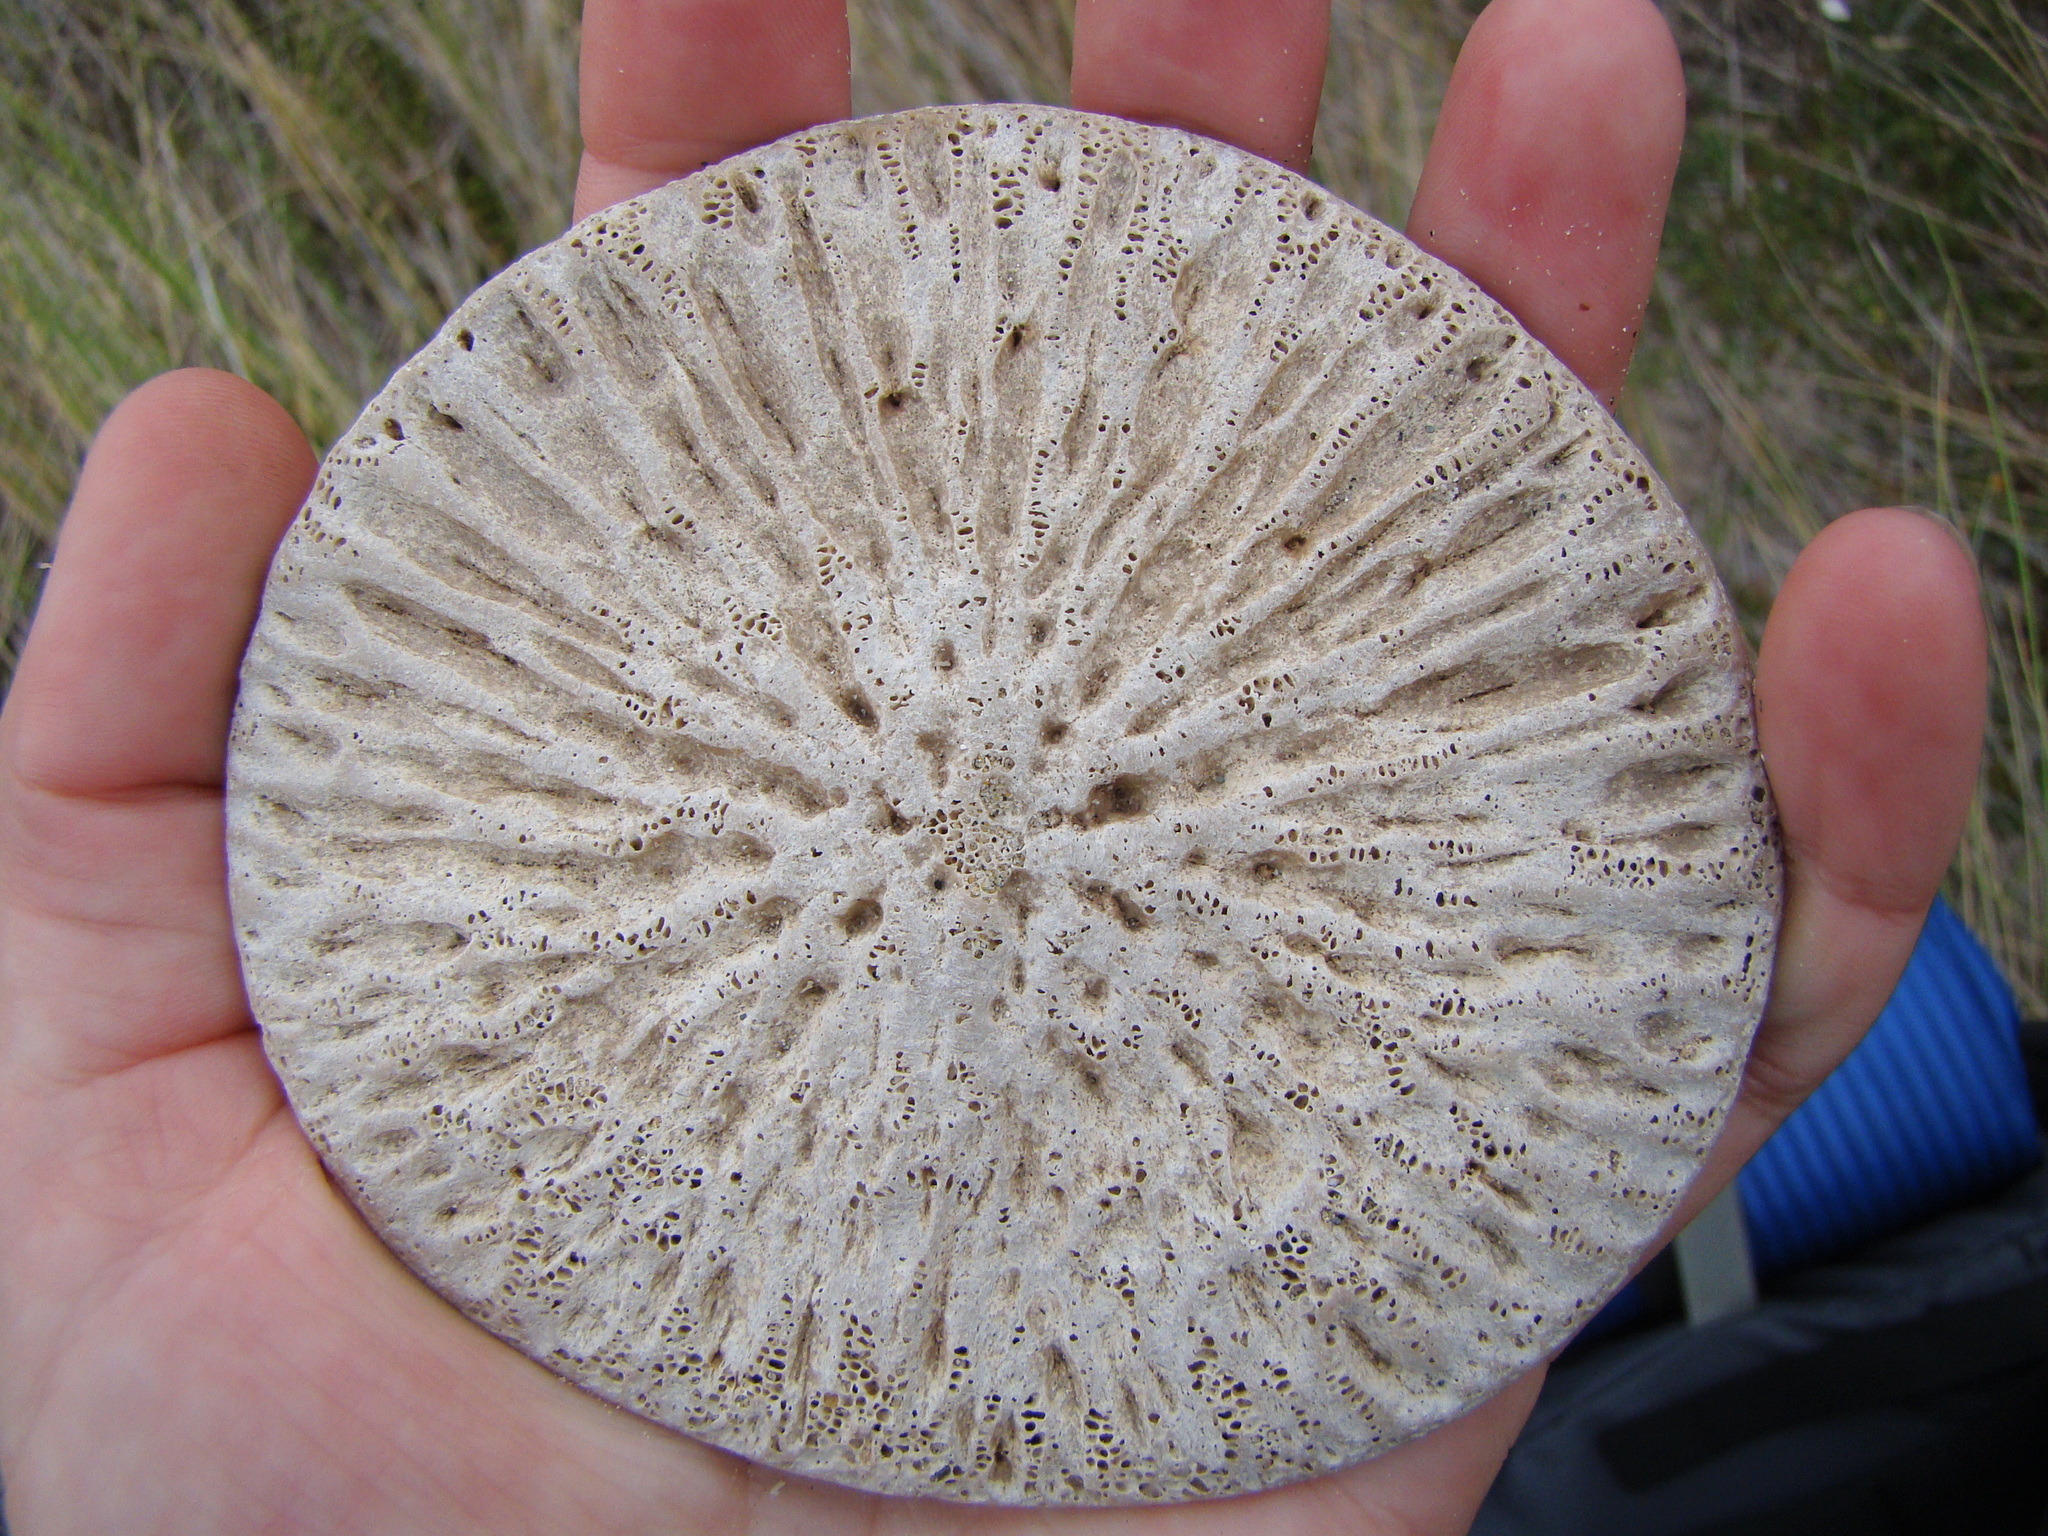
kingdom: Animalia
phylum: Chordata
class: Mammalia
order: Cetacea
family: Delphinidae
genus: Globicephala
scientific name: Globicephala melas
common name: Long-finned pilot whale
